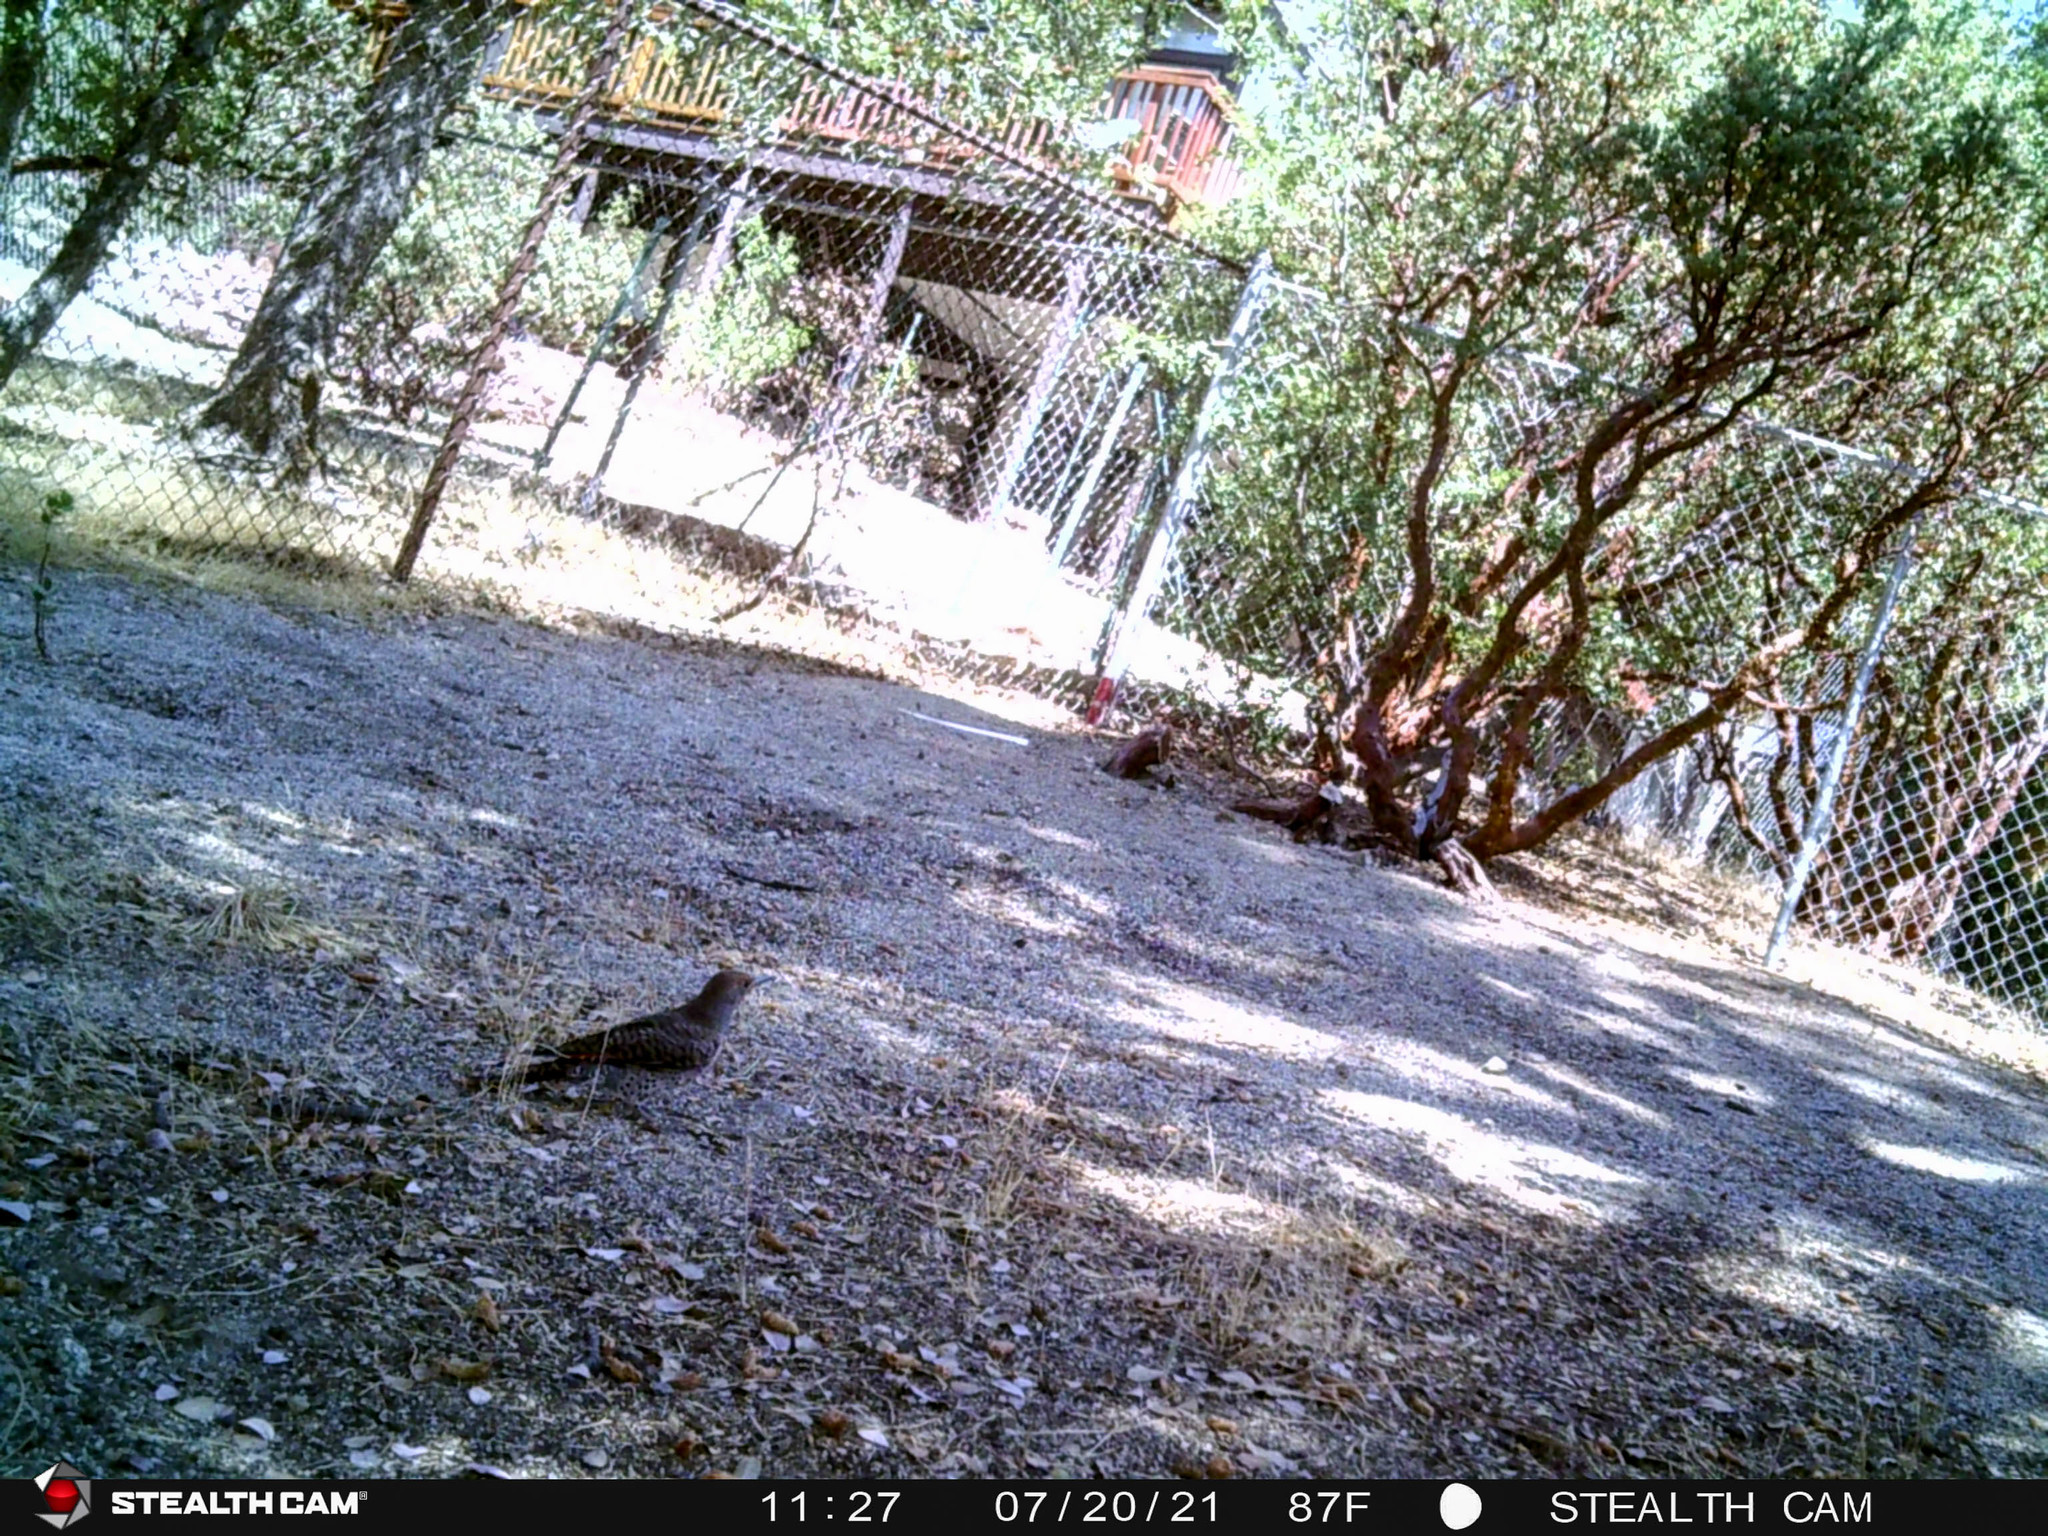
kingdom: Animalia
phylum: Chordata
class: Aves
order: Piciformes
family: Picidae
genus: Colaptes
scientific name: Colaptes auratus
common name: Northern flicker
